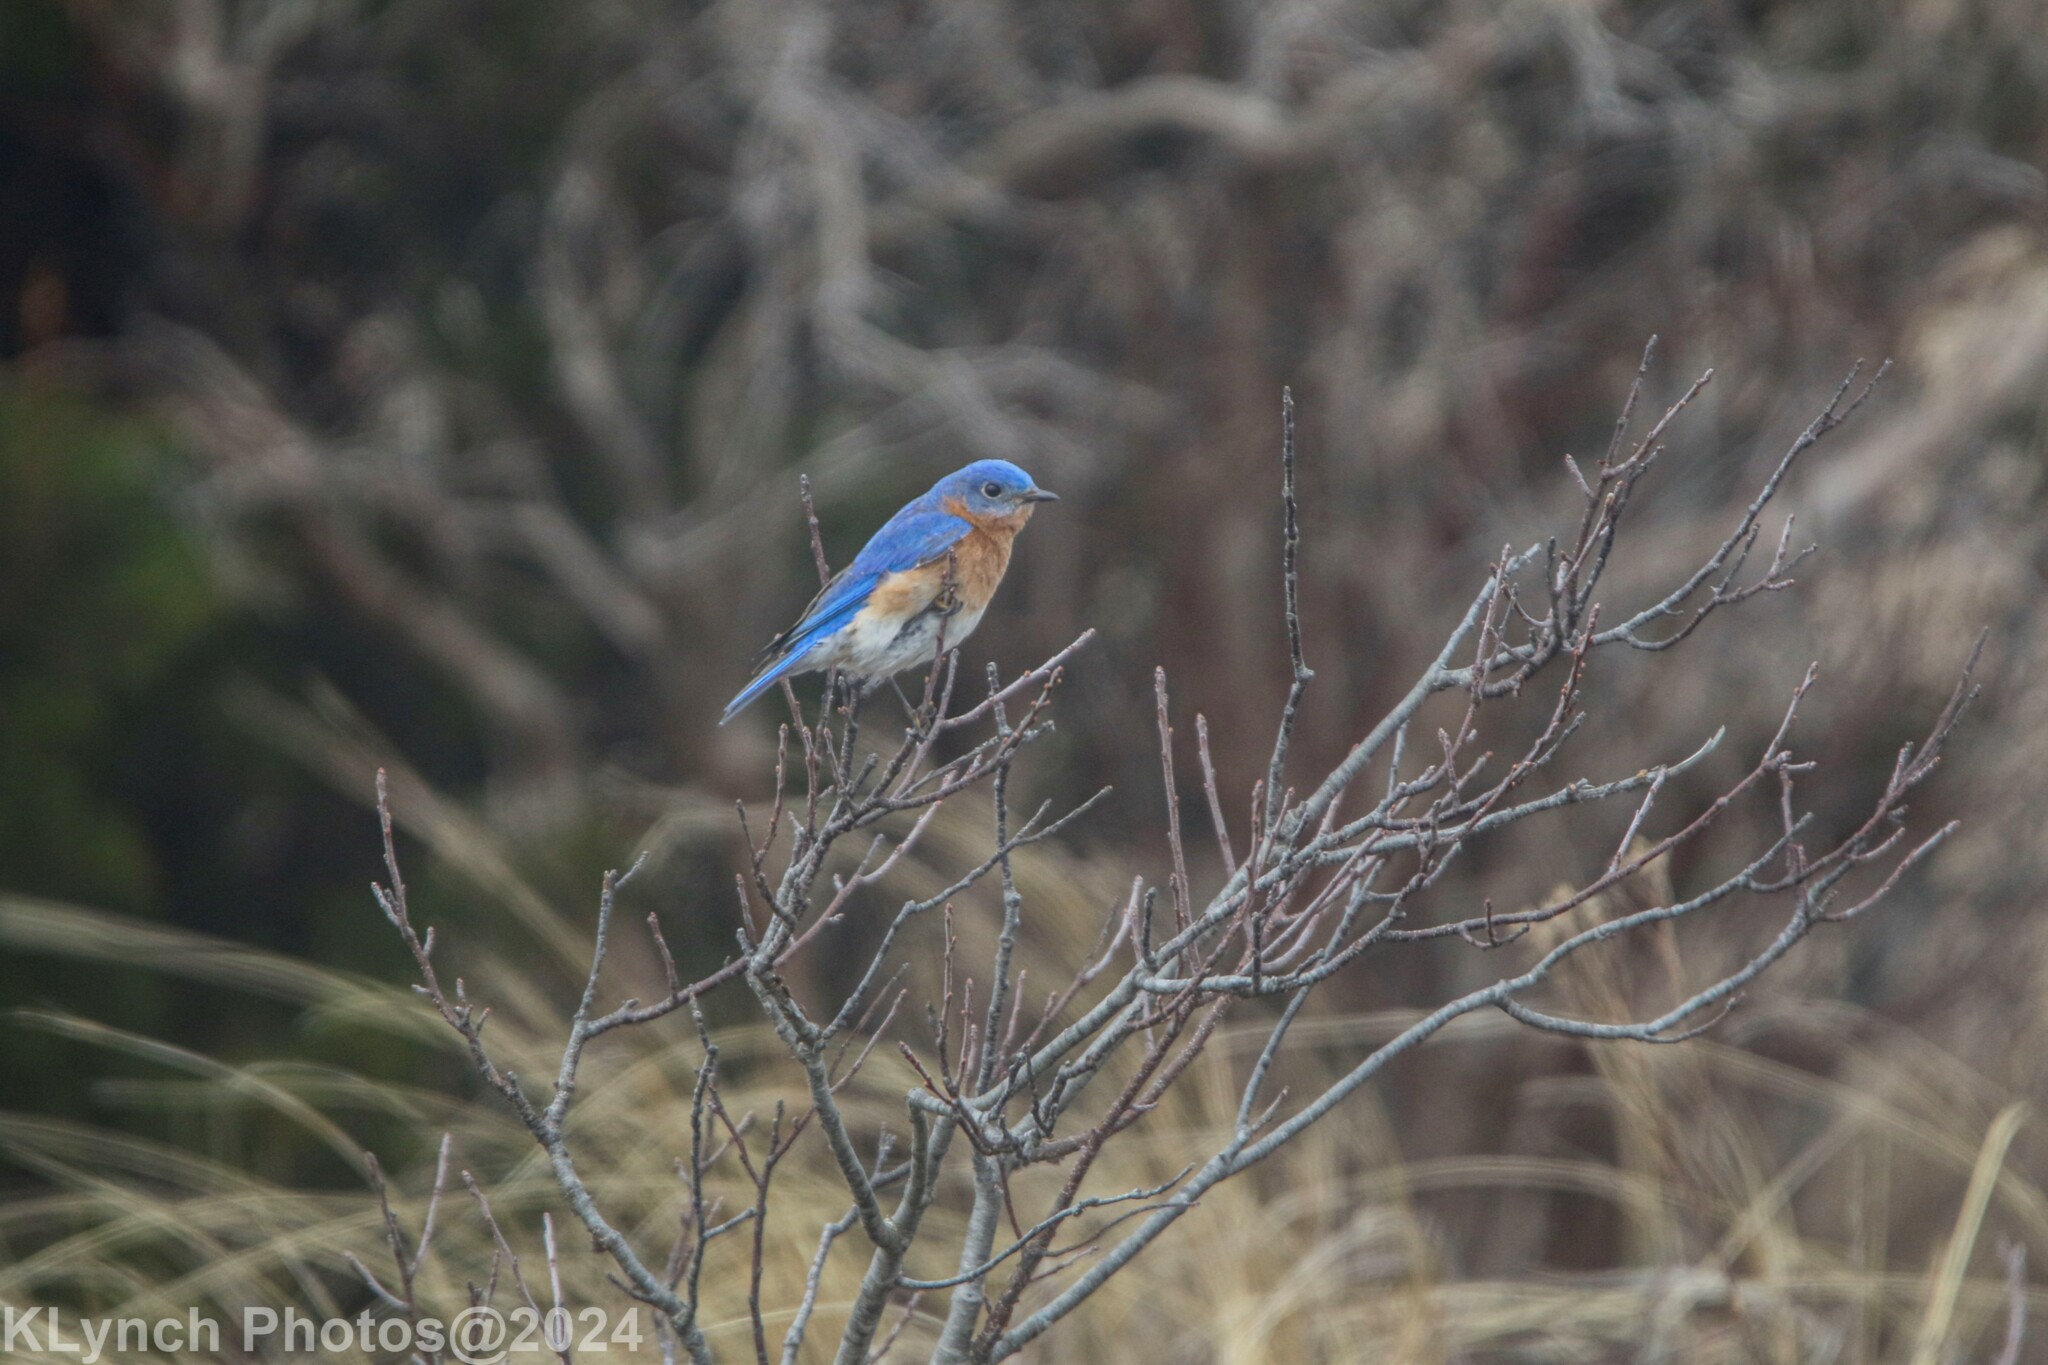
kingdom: Animalia
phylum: Chordata
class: Aves
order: Passeriformes
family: Turdidae
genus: Sialia
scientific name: Sialia sialis
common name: Eastern bluebird
